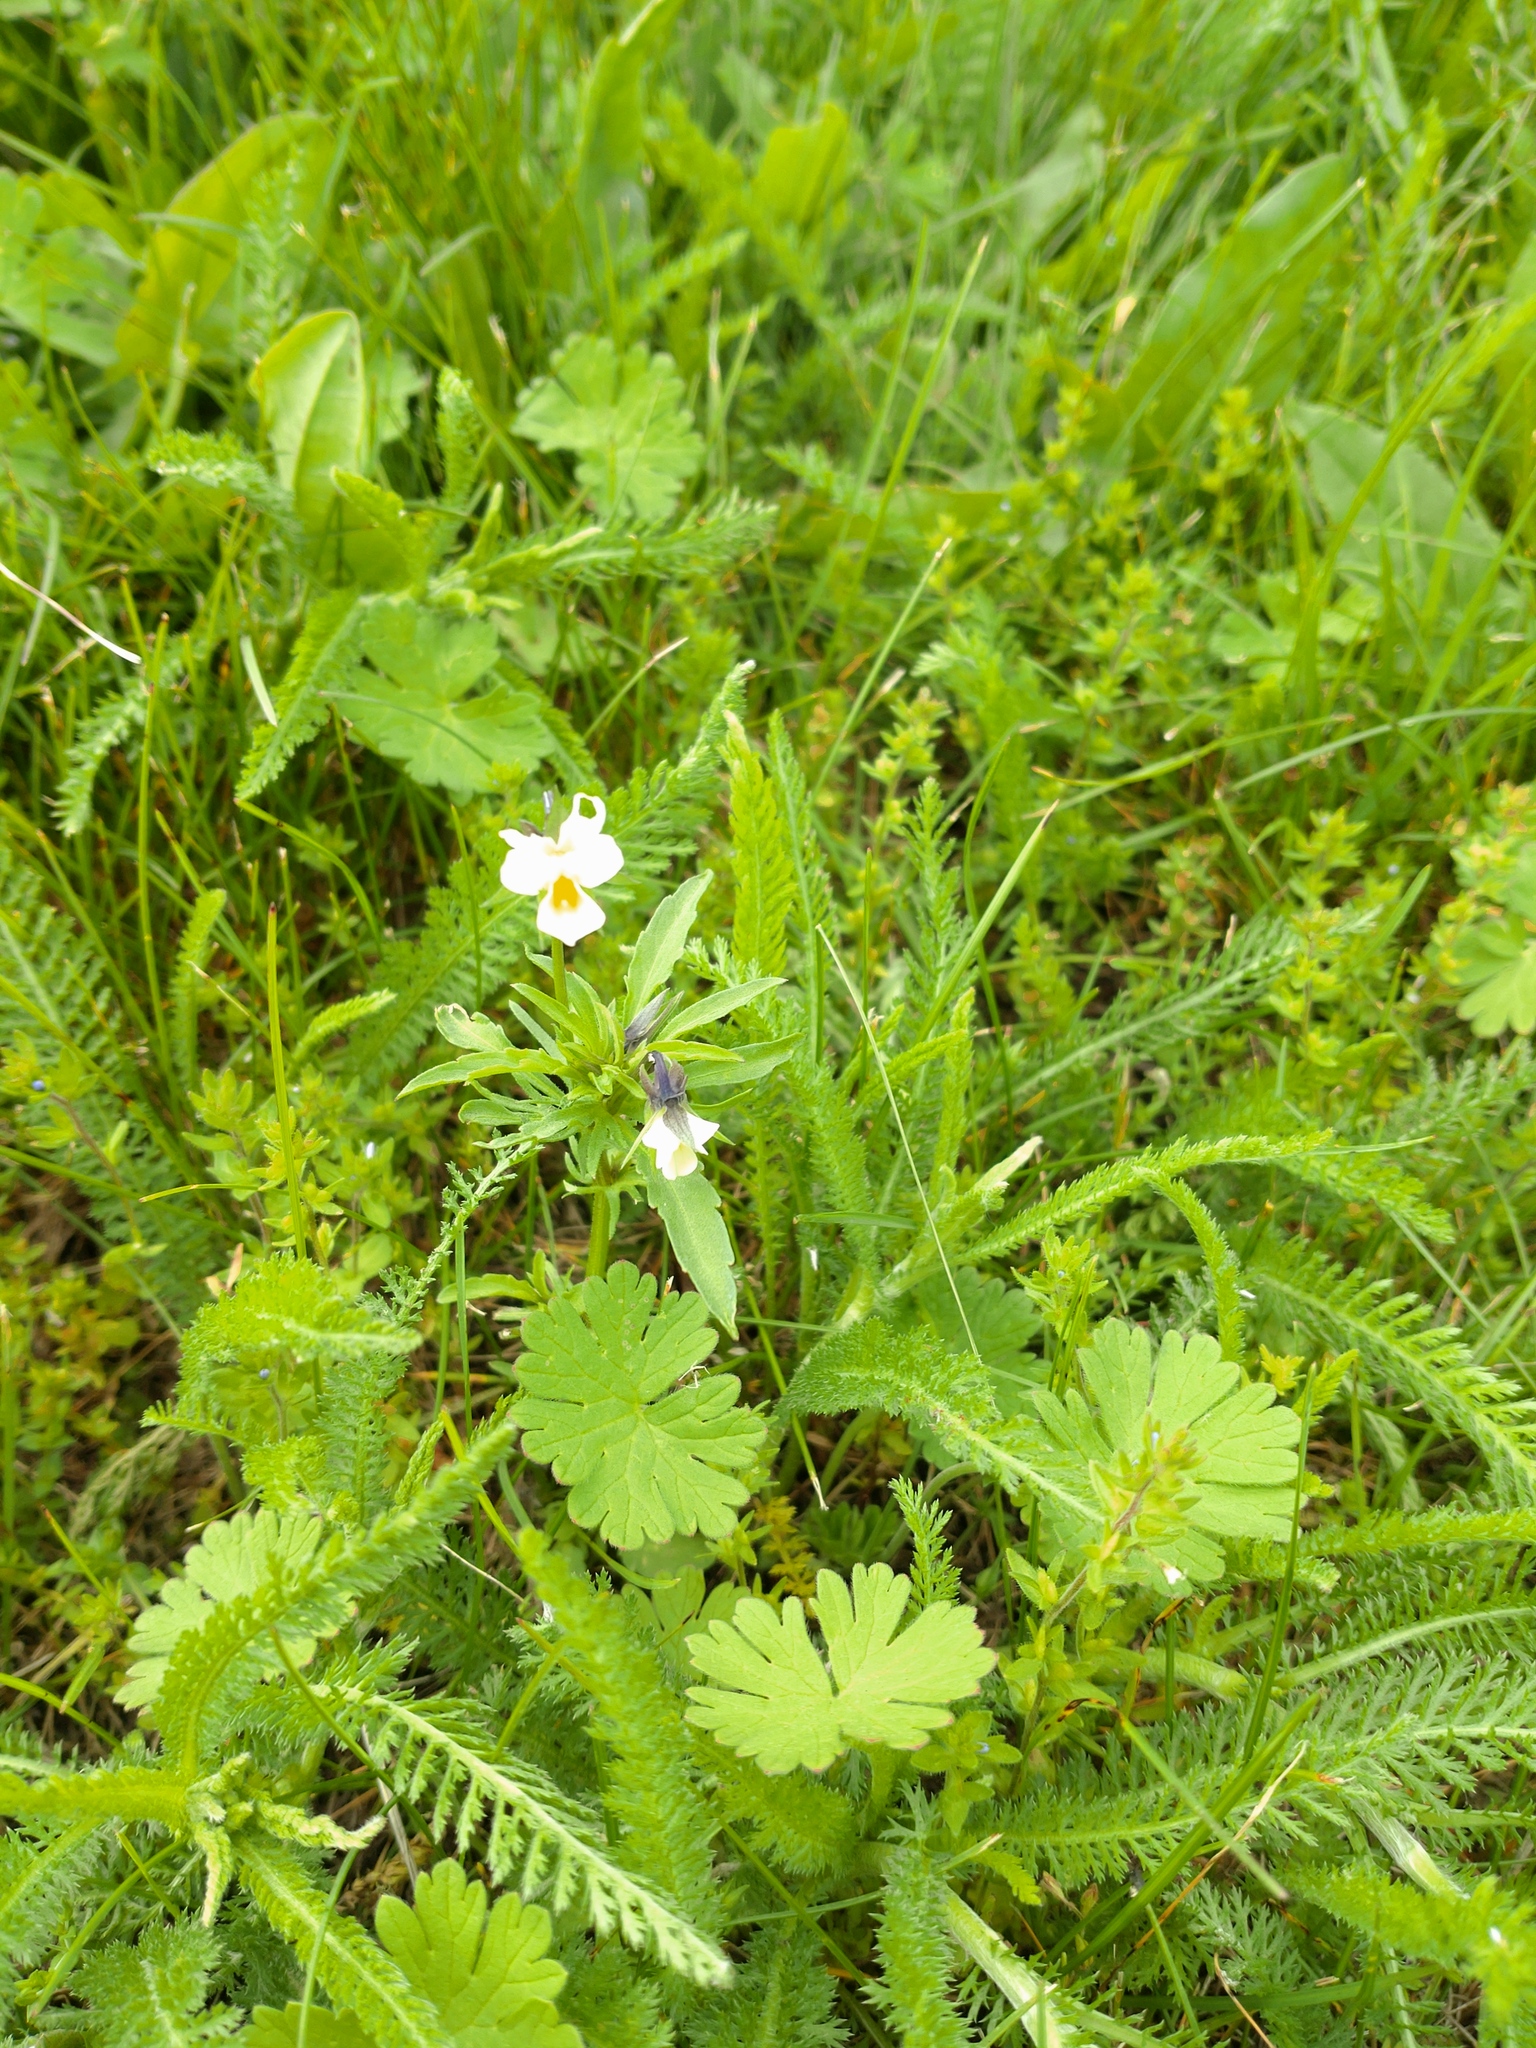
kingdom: Plantae
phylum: Tracheophyta
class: Magnoliopsida
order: Malpighiales
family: Violaceae
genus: Viola
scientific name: Viola arvensis
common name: Field pansy
